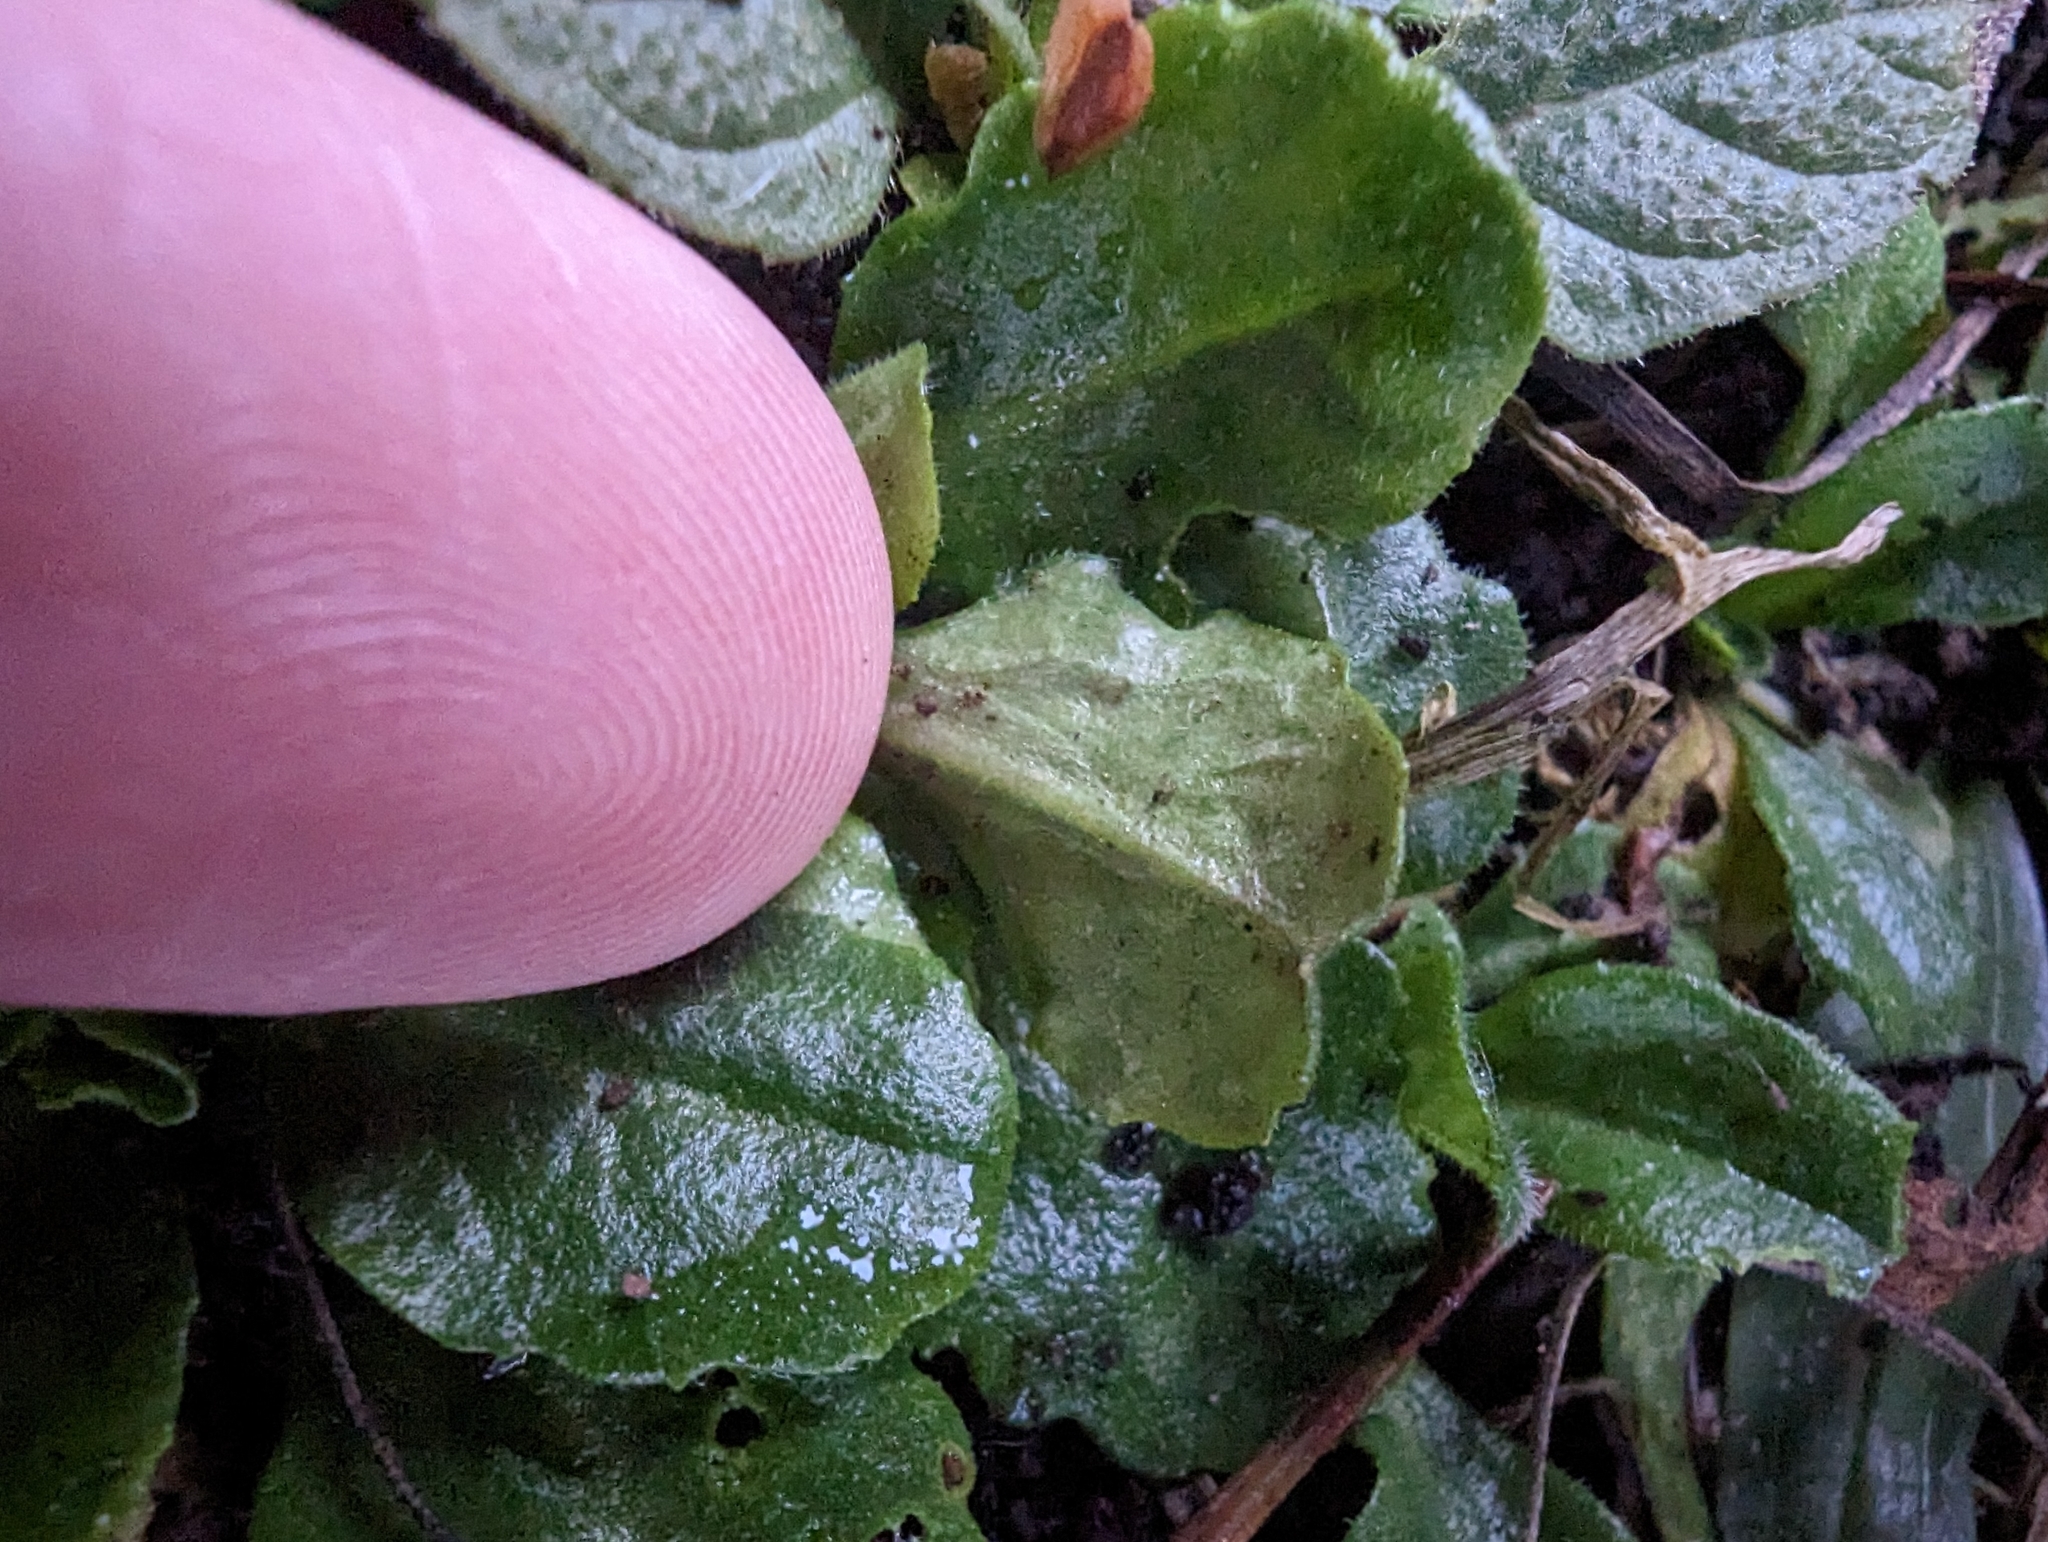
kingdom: Plantae
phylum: Tracheophyta
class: Magnoliopsida
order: Asterales
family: Asteraceae
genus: Bellis
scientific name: Bellis perennis
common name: Lawndaisy
